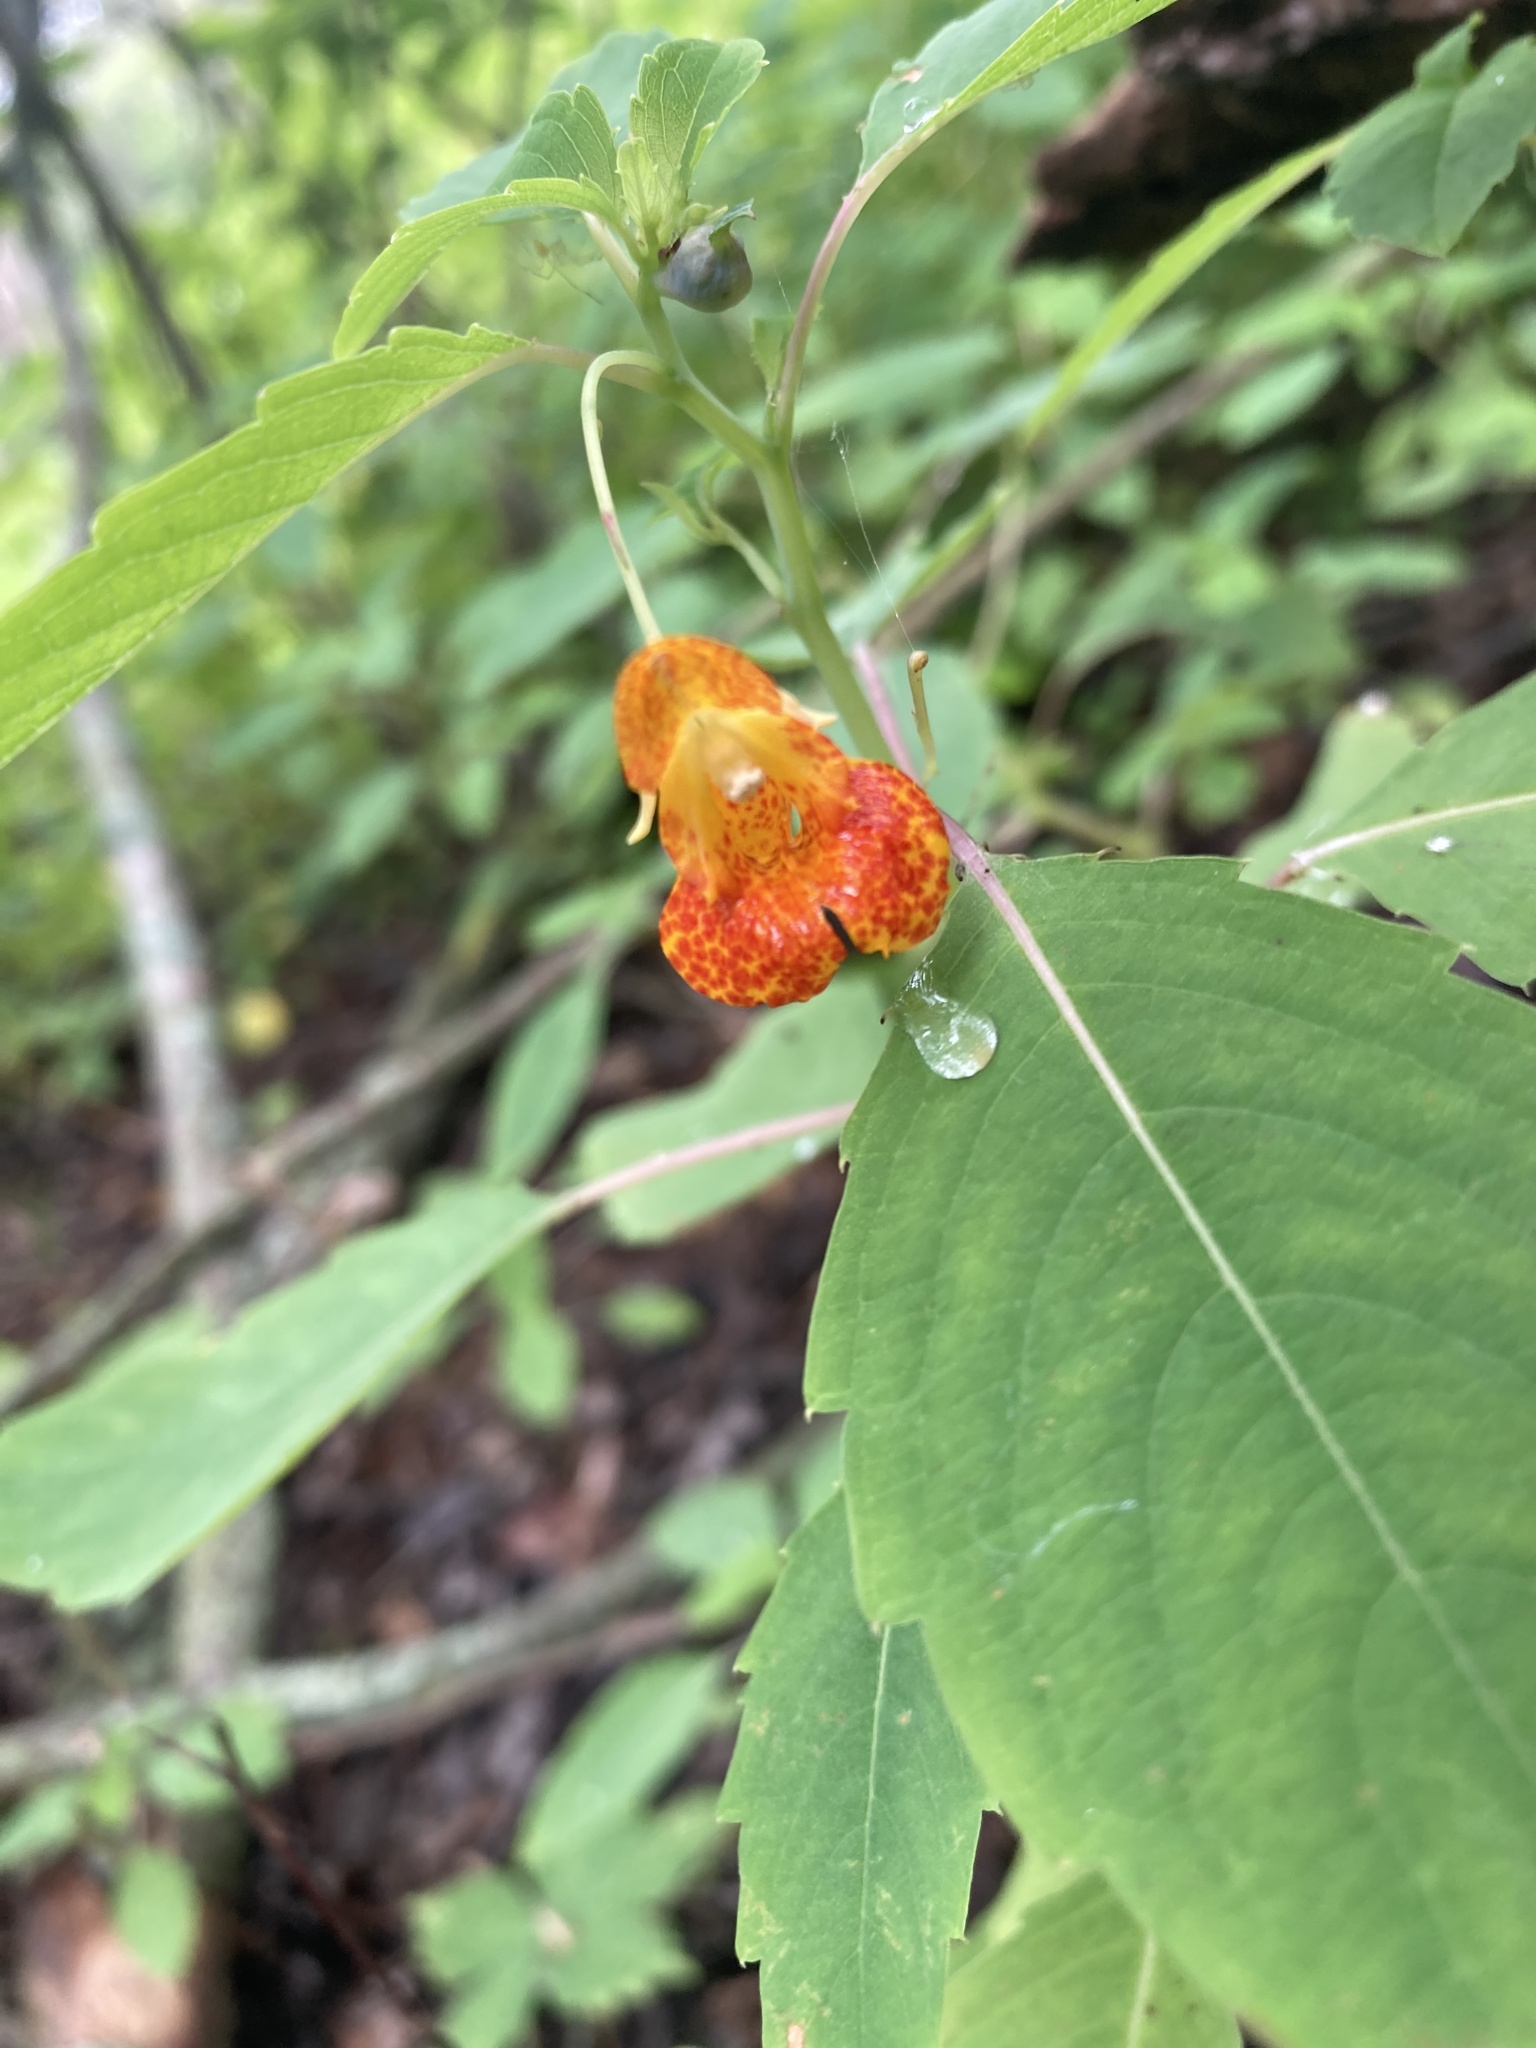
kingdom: Plantae
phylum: Tracheophyta
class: Magnoliopsida
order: Ericales
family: Balsaminaceae
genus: Impatiens
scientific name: Impatiens capensis
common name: Orange balsam
